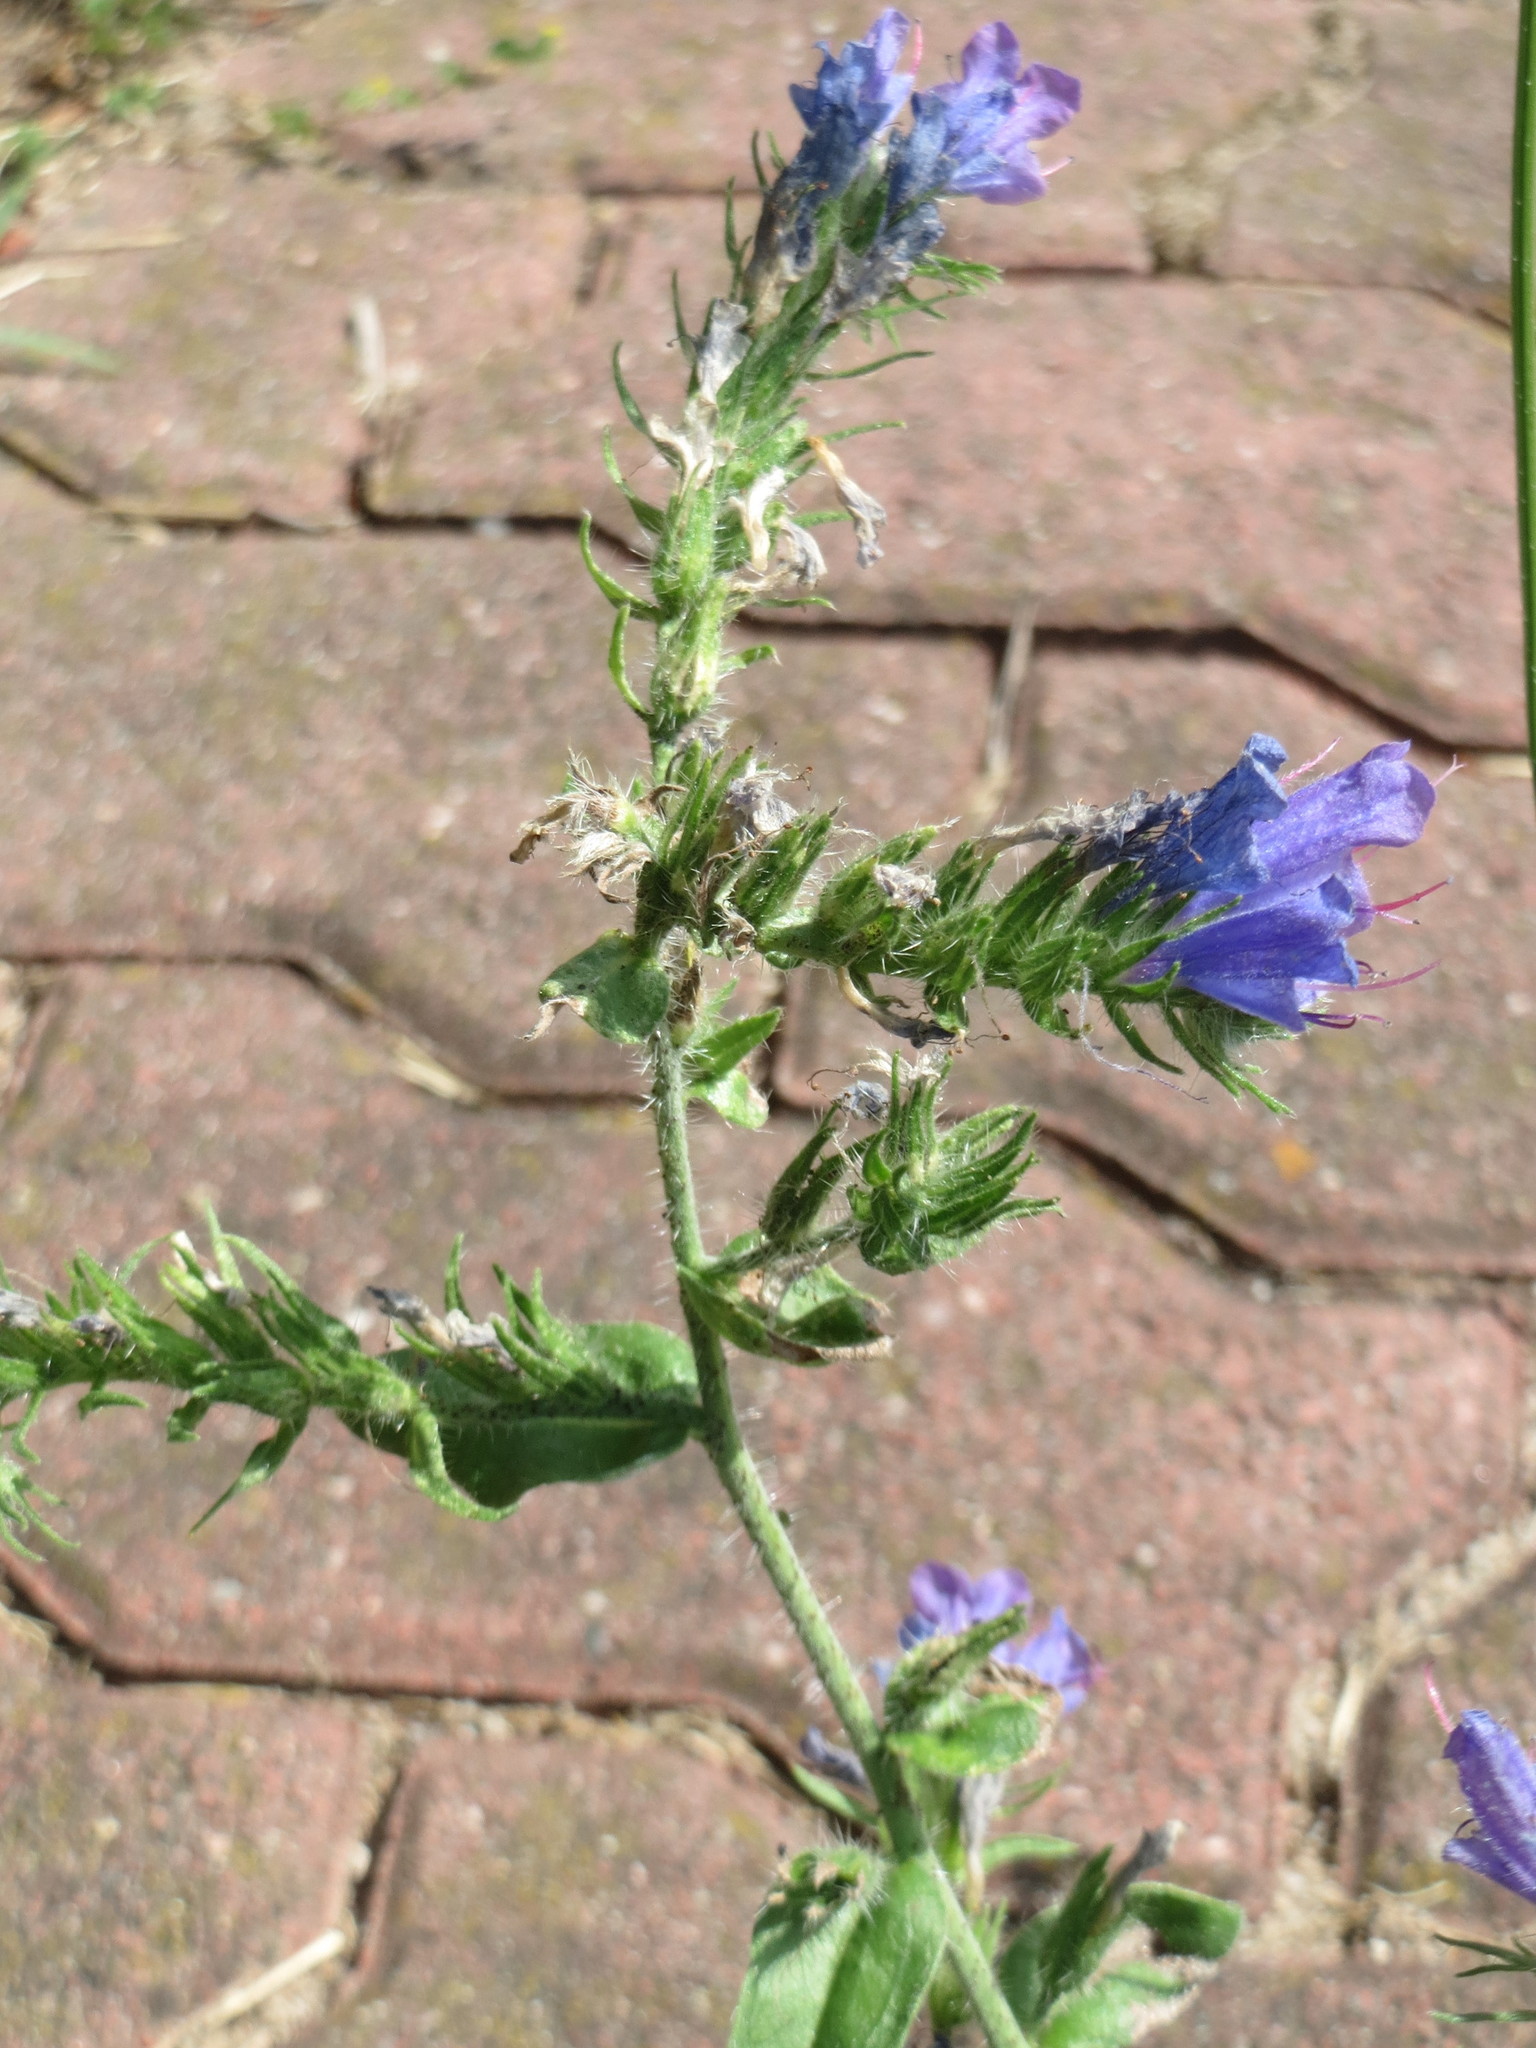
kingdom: Plantae
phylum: Tracheophyta
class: Magnoliopsida
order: Boraginales
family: Boraginaceae
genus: Echium
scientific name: Echium vulgare
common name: Common viper's bugloss
